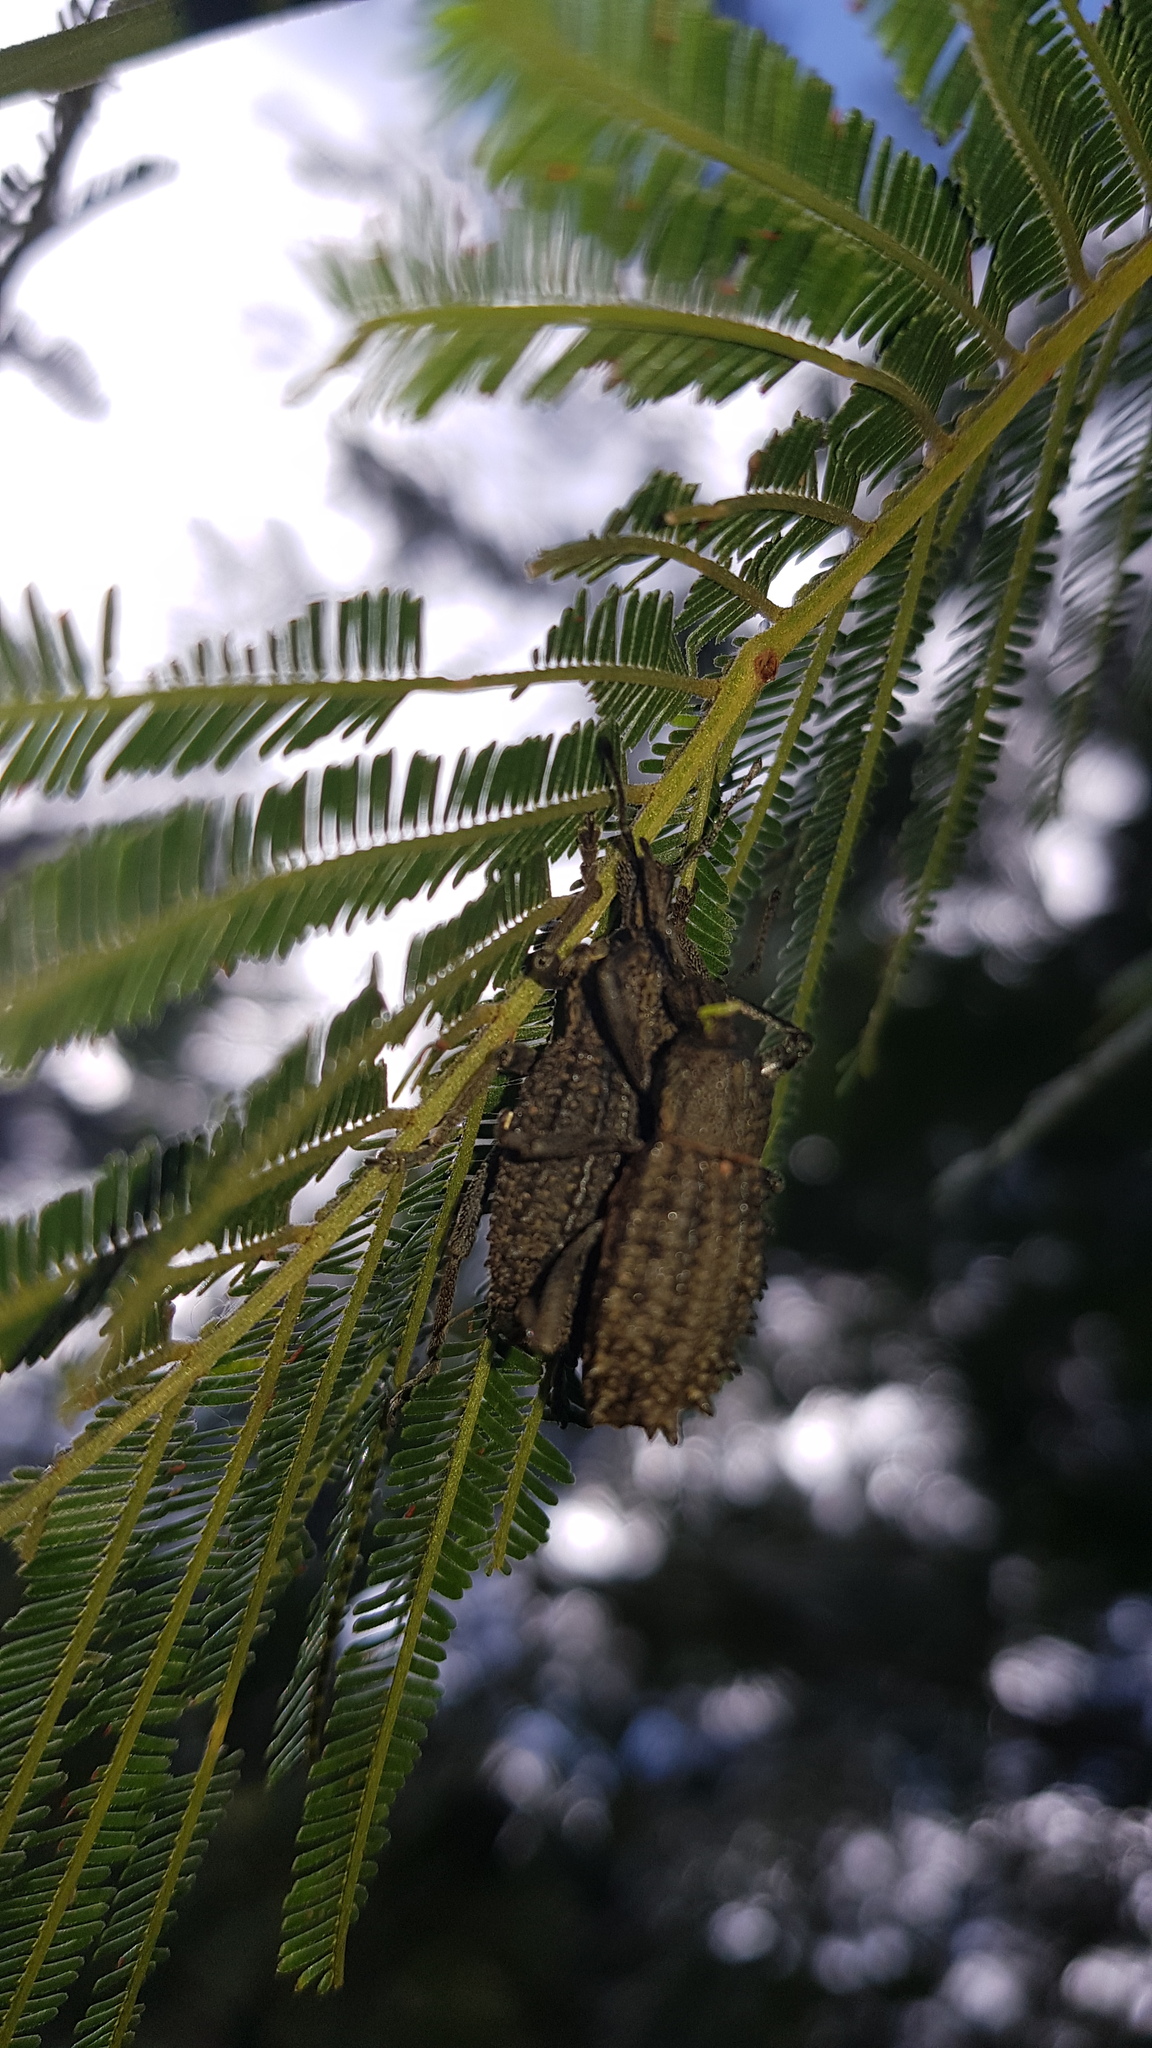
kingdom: Animalia
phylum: Arthropoda
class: Insecta
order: Coleoptera
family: Curculionidae
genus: Leptopius
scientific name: Leptopius duponti
